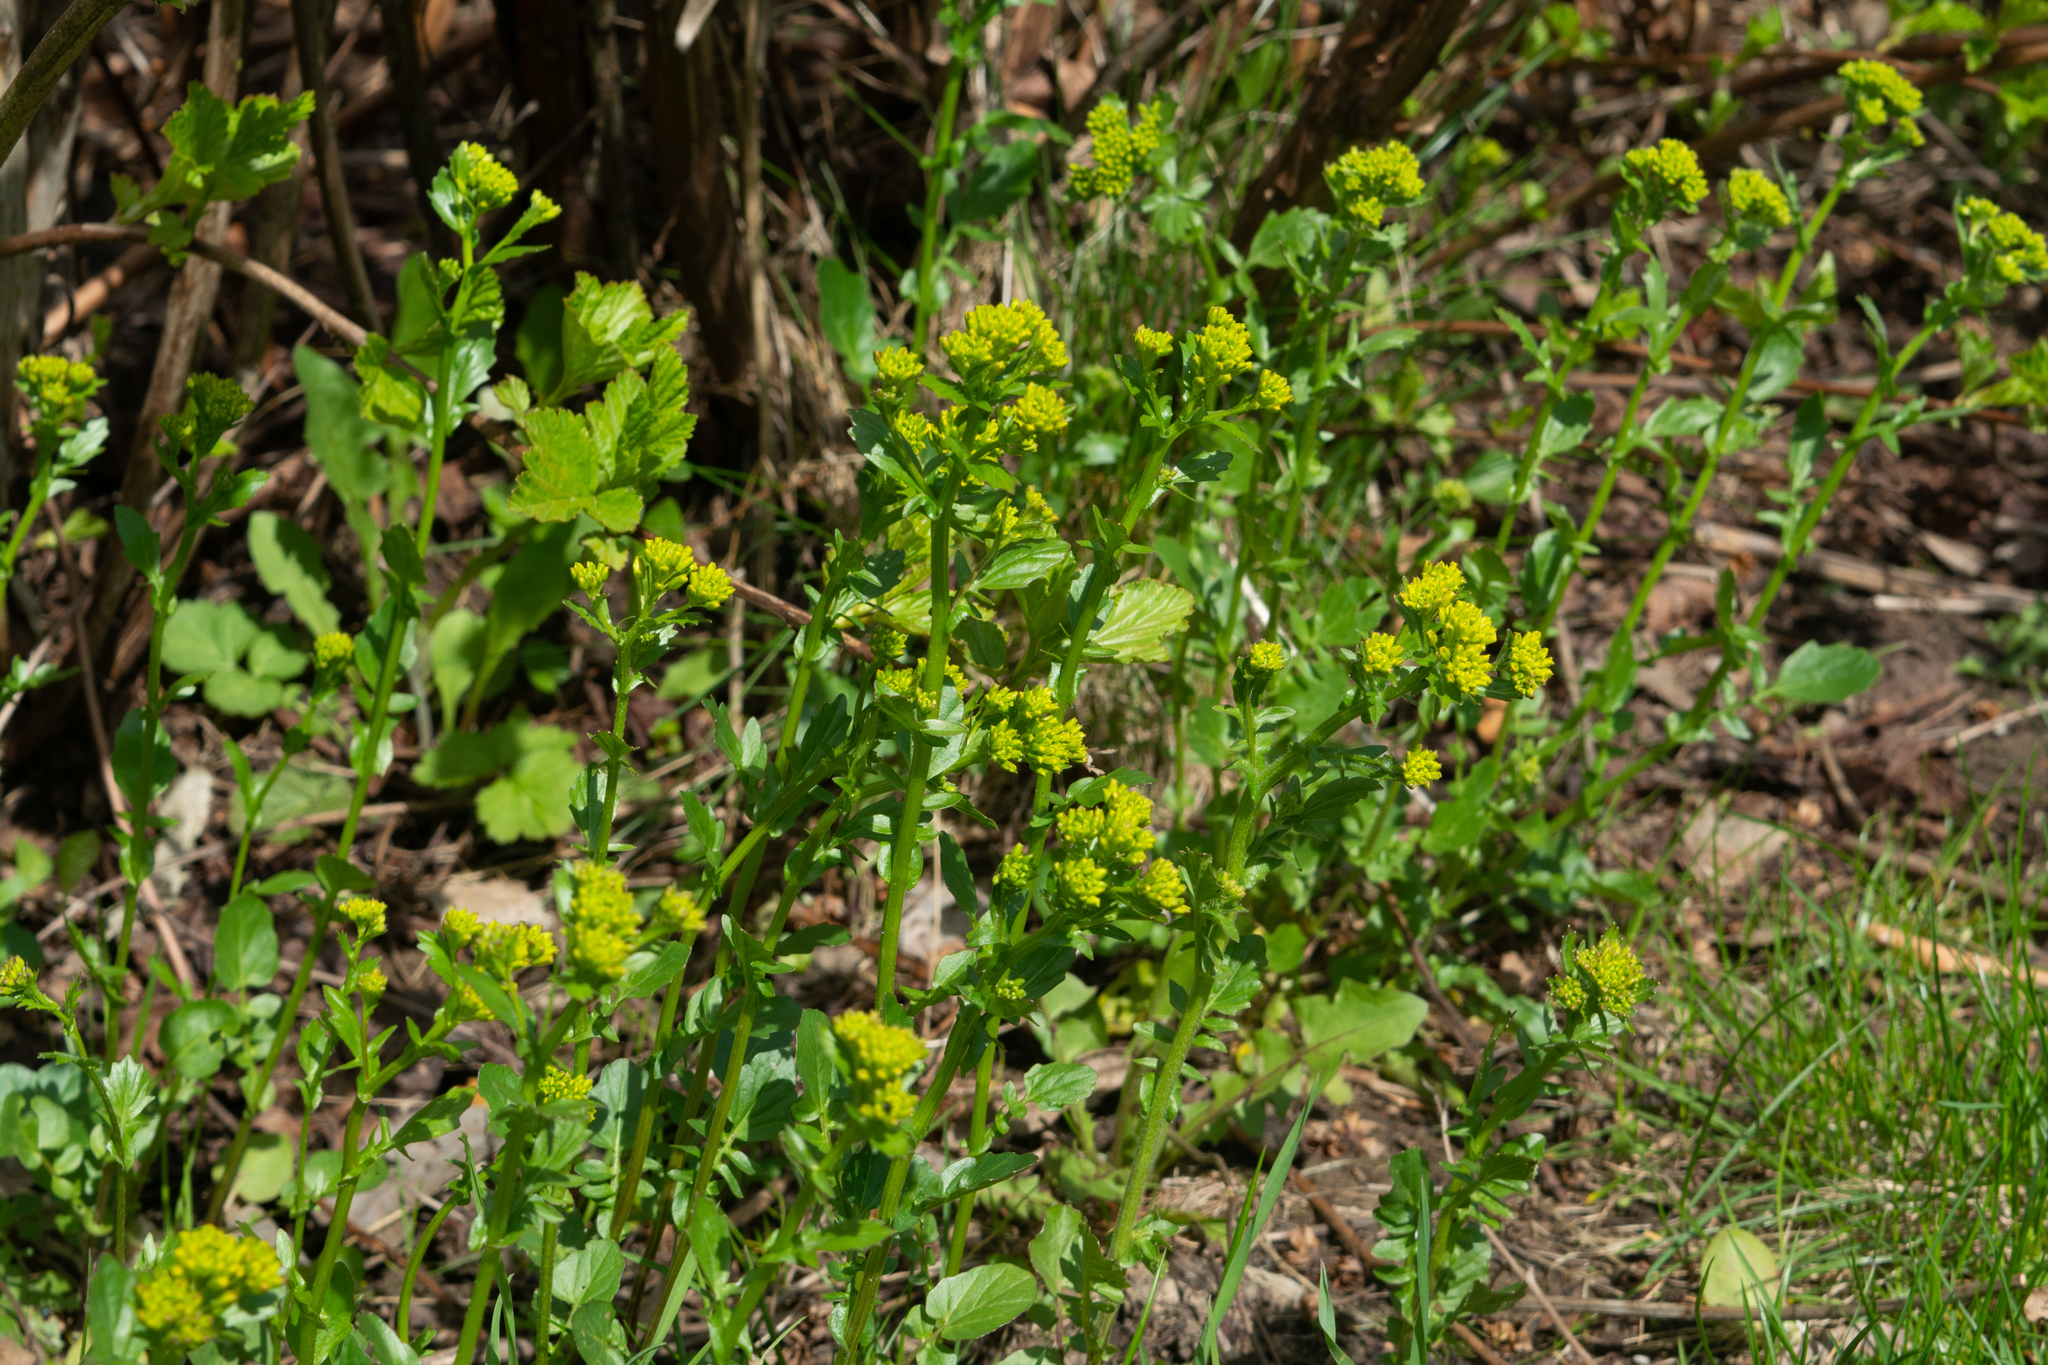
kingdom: Plantae
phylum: Tracheophyta
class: Magnoliopsida
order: Brassicales
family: Brassicaceae
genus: Barbarea
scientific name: Barbarea vulgaris
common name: Cressy-greens
